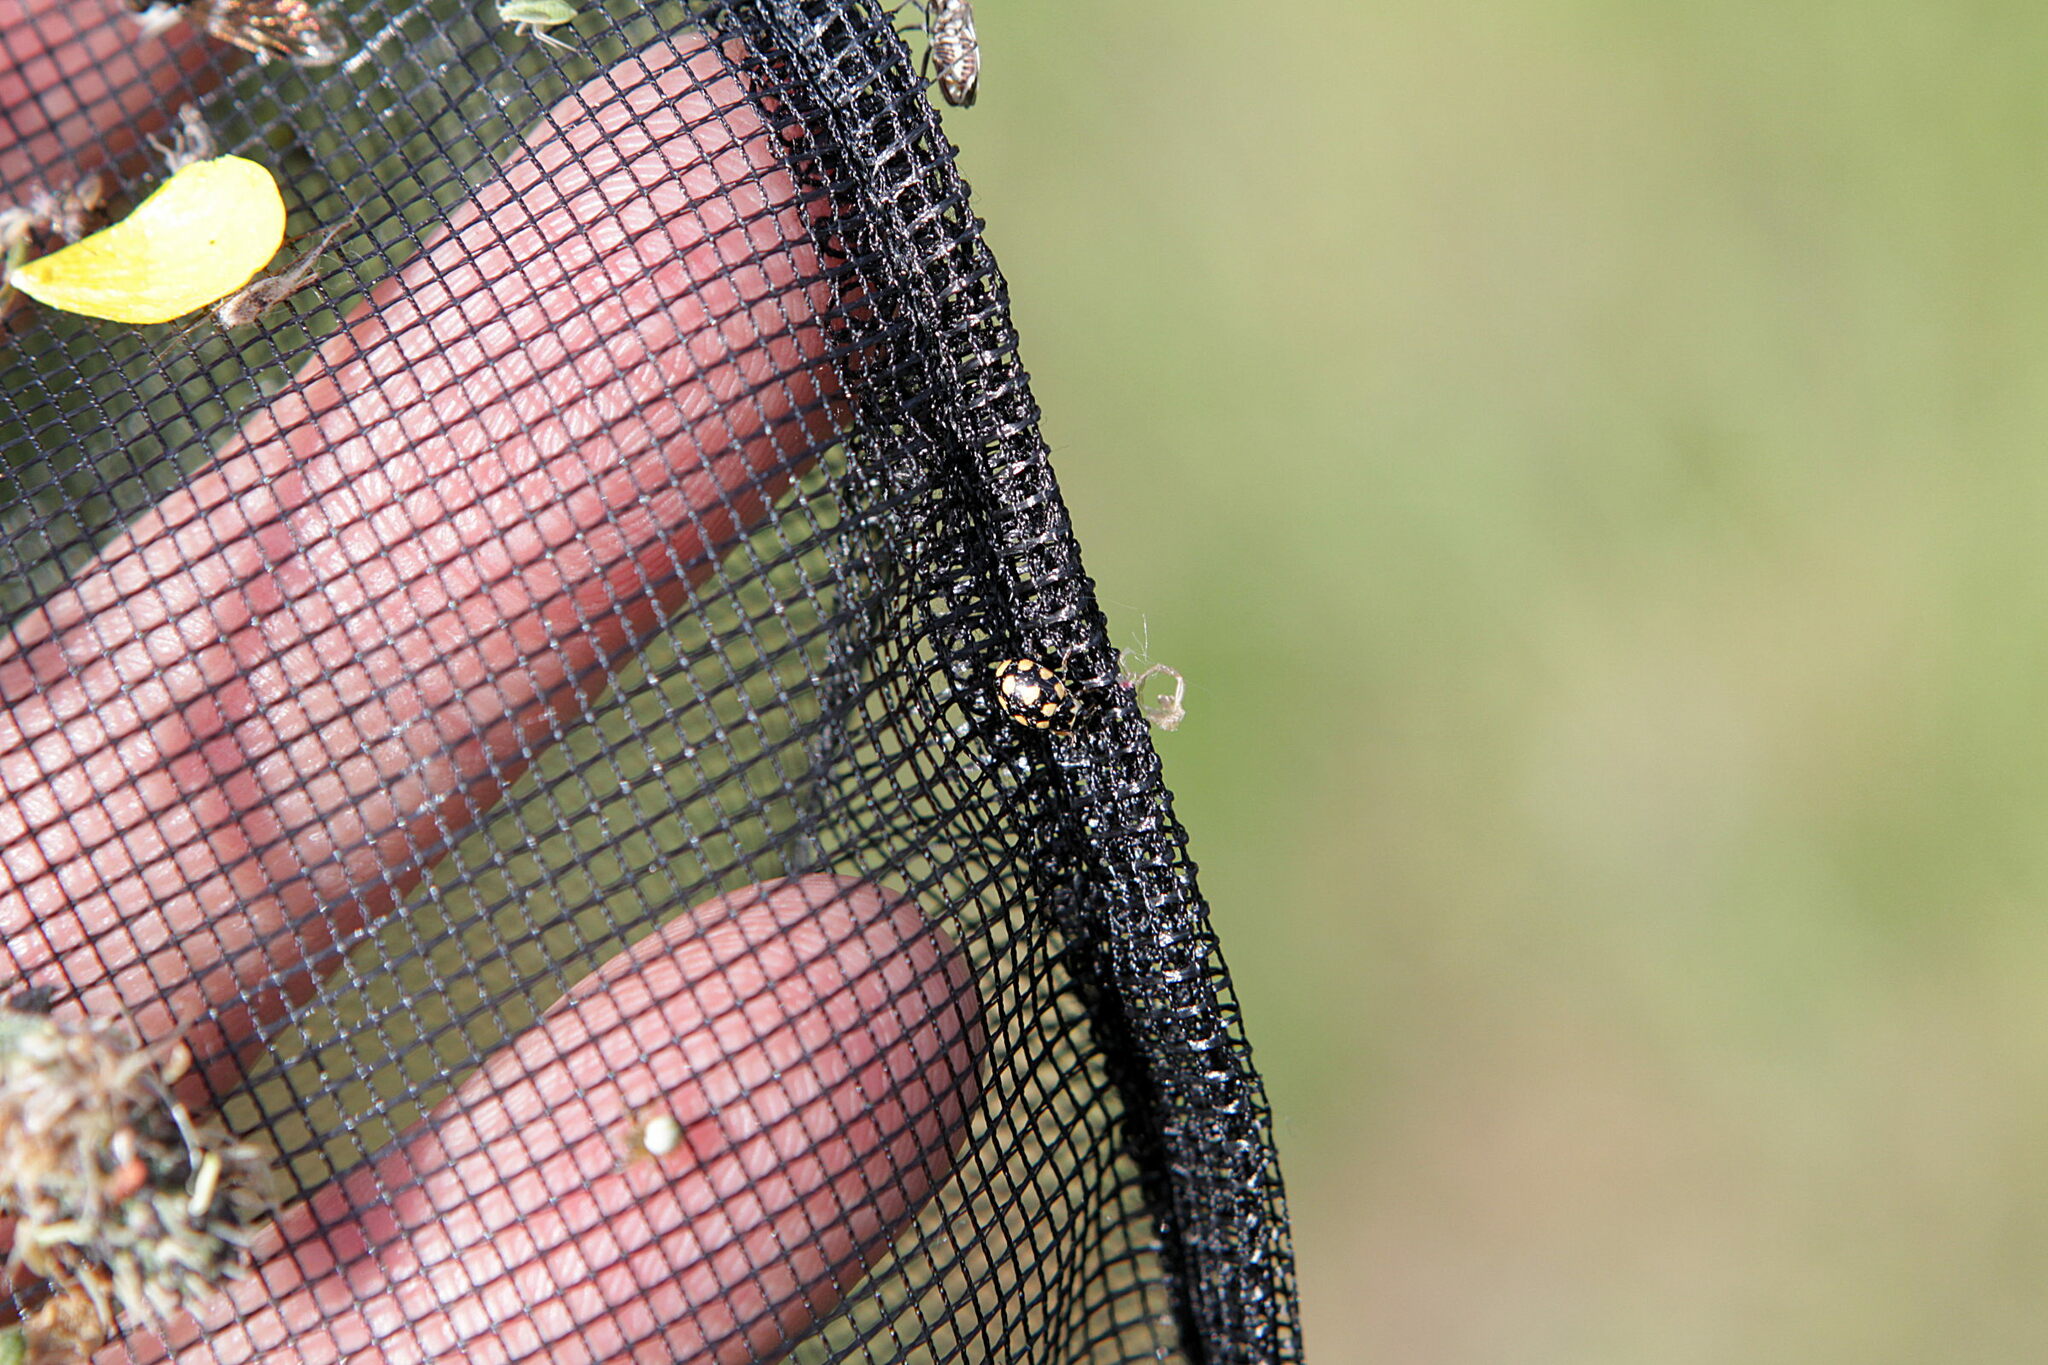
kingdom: Animalia
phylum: Arthropoda
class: Insecta
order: Coleoptera
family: Coccinellidae
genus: Coccinula
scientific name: Coccinula quatuordecimpustulata
